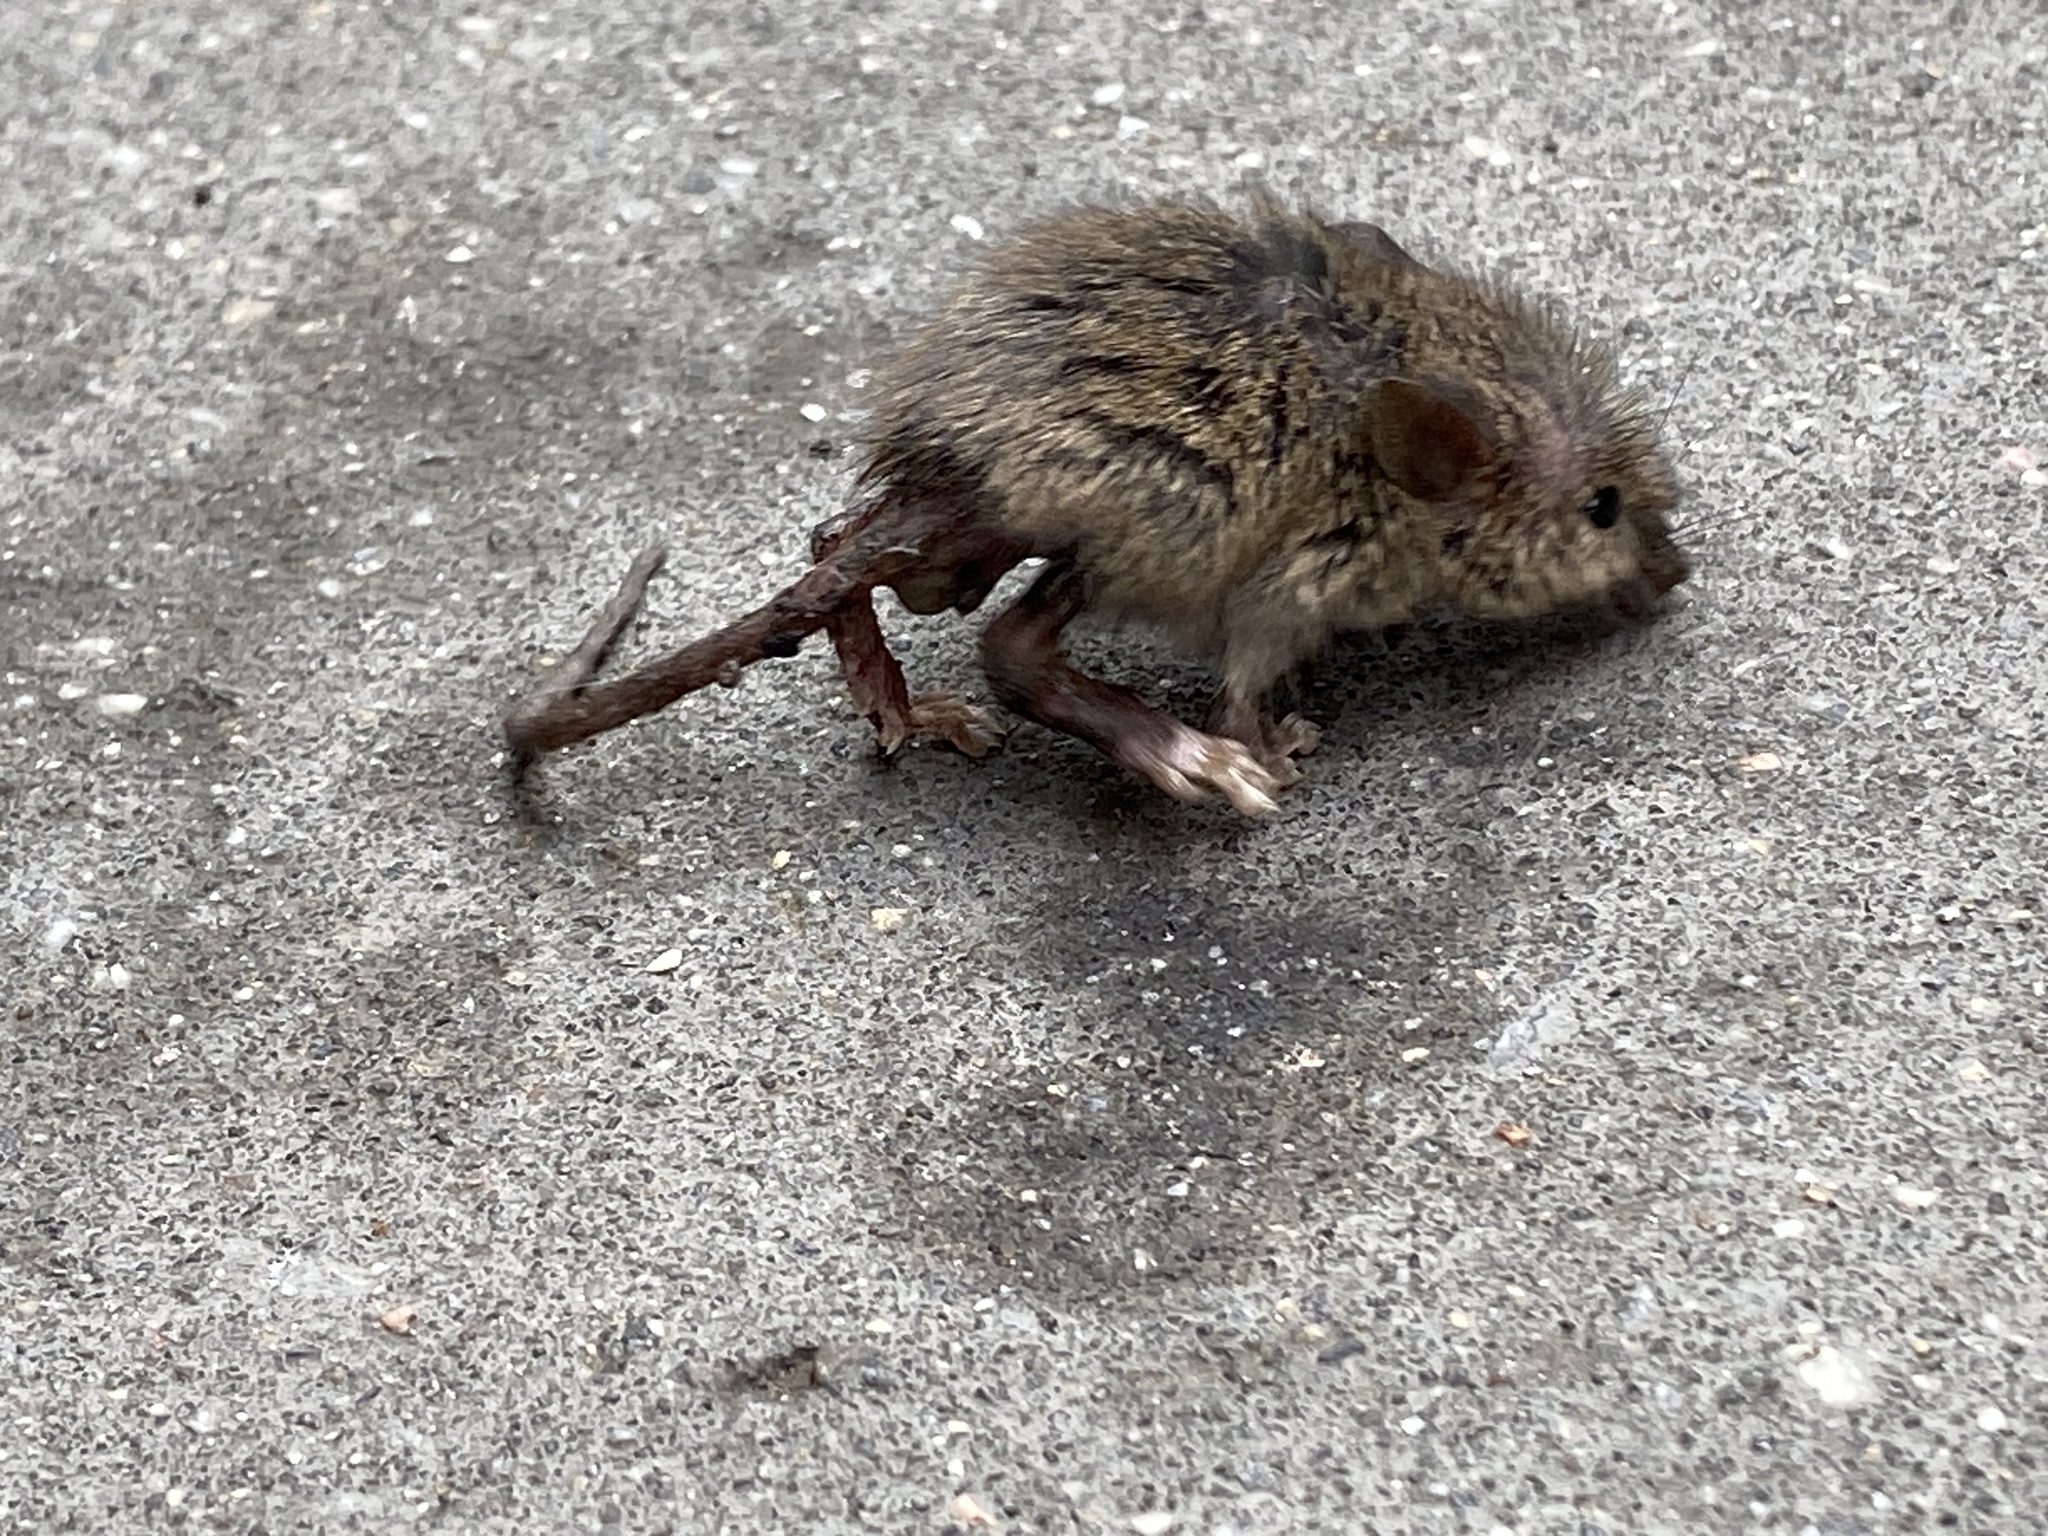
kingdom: Animalia
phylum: Chordata
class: Mammalia
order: Rodentia
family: Muridae
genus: Mus
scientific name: Mus musculus
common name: House mouse
